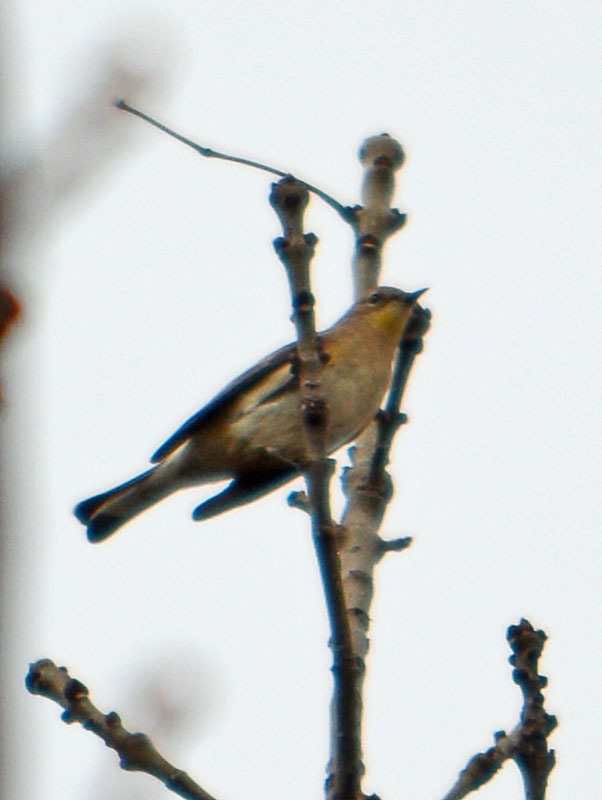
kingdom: Animalia
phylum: Chordata
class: Aves
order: Passeriformes
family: Parulidae
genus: Setophaga
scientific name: Setophaga coronata
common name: Myrtle warbler
